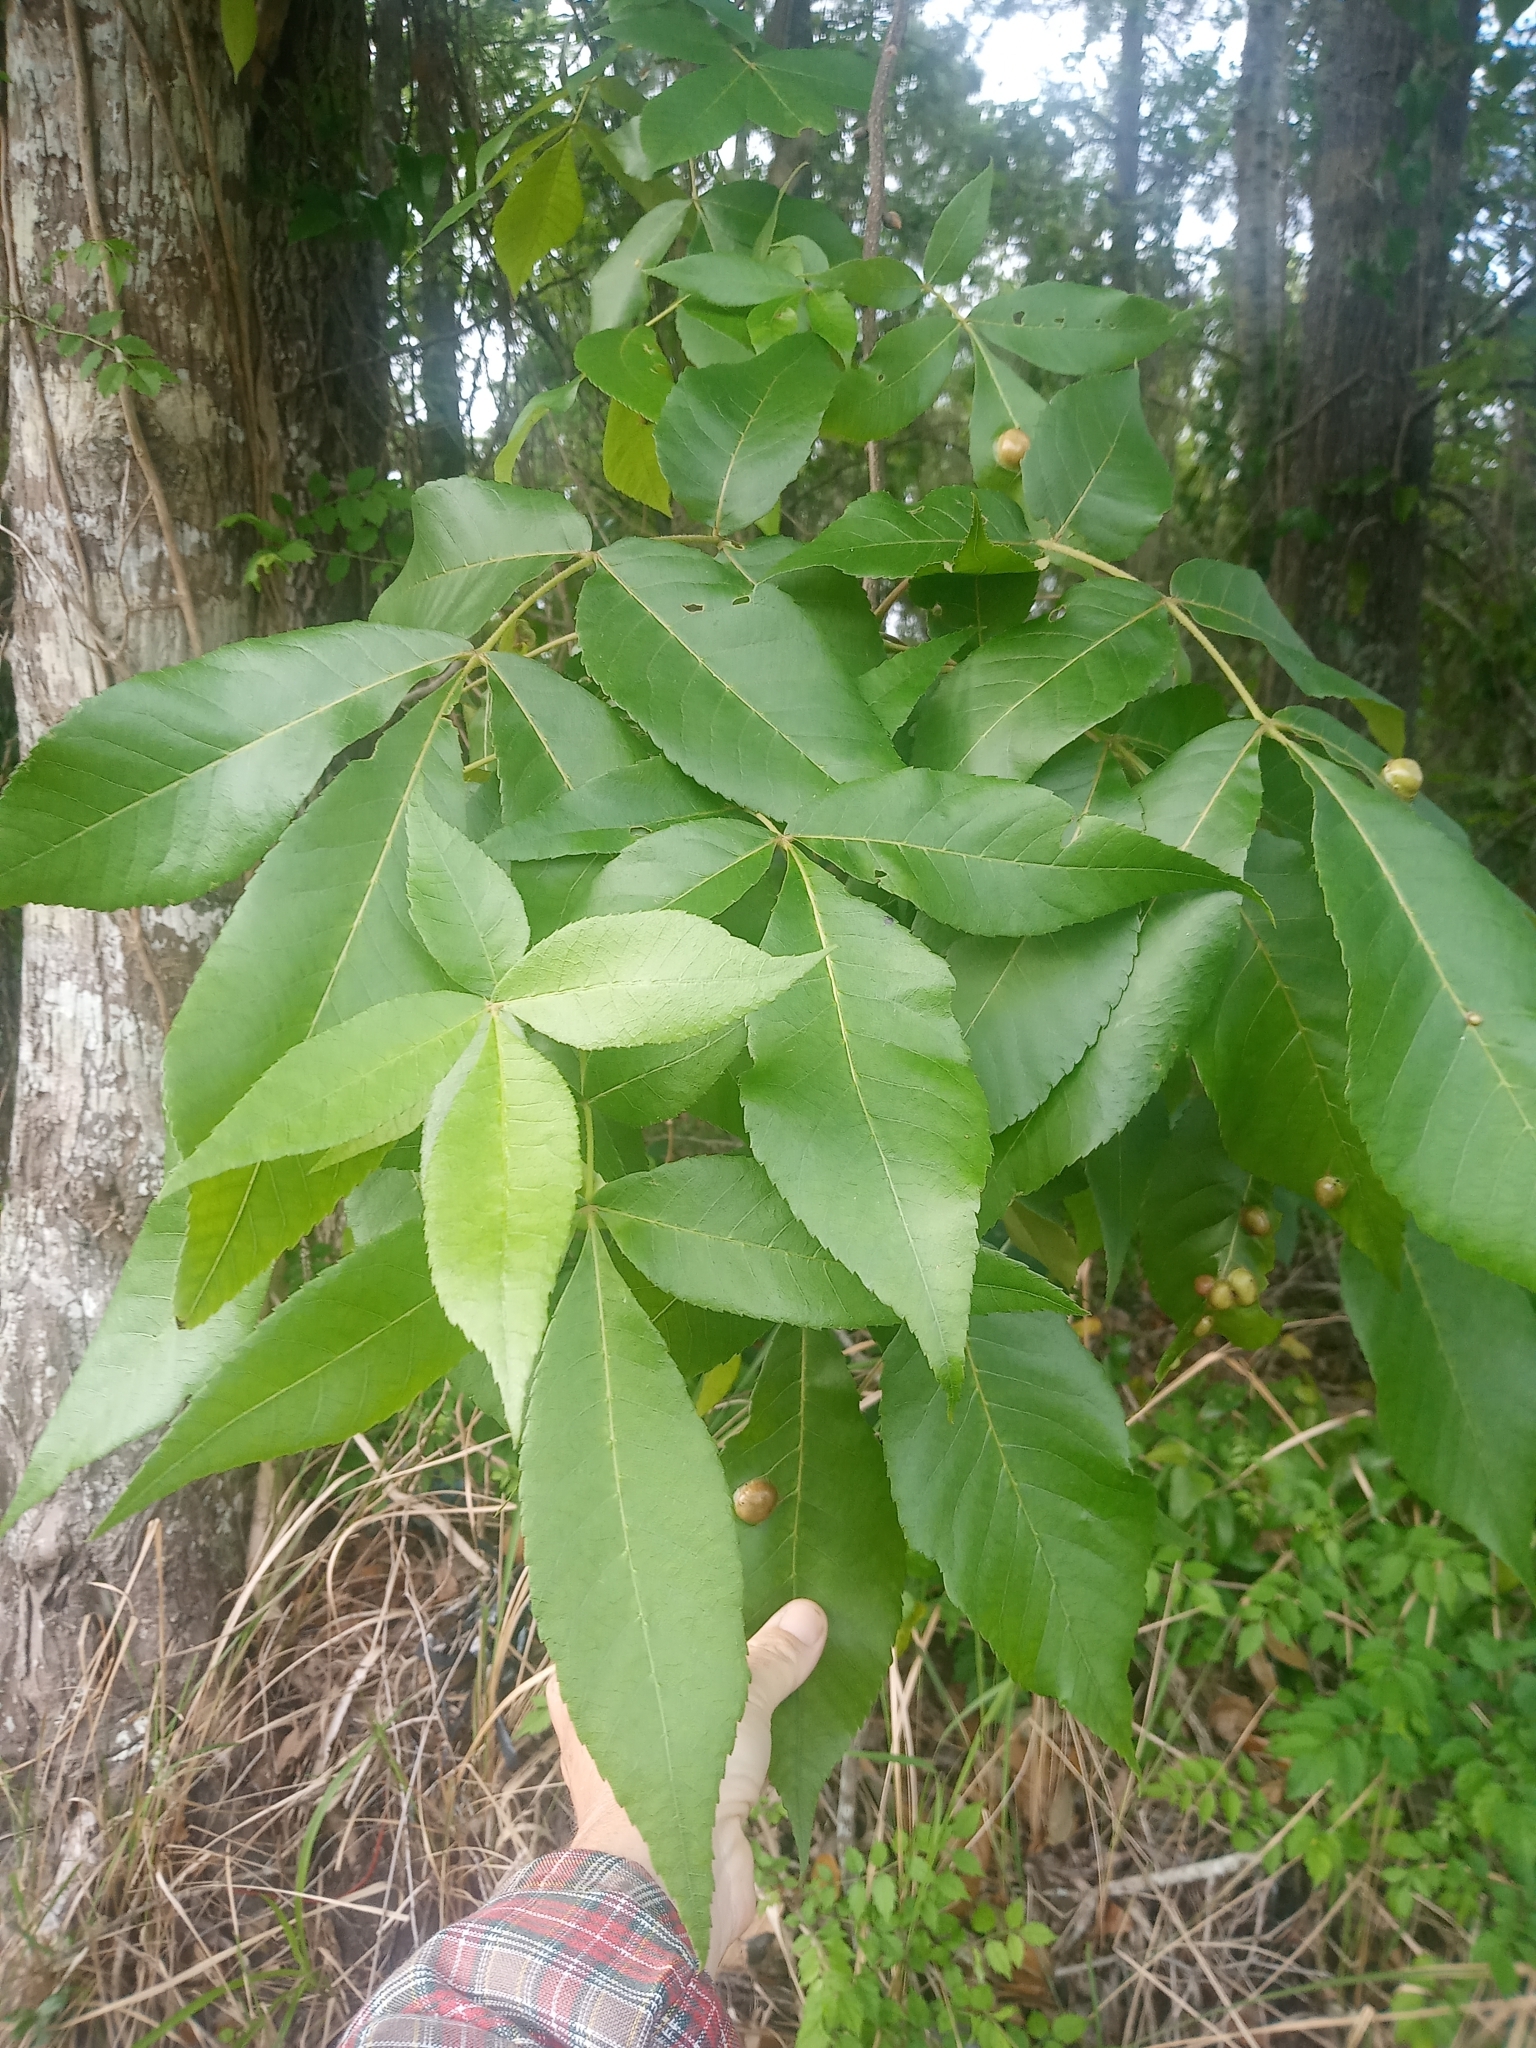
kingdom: Animalia
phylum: Arthropoda
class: Insecta
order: Hemiptera
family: Phylloxeridae
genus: Phylloxera
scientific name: Phylloxera caryae-scissa
